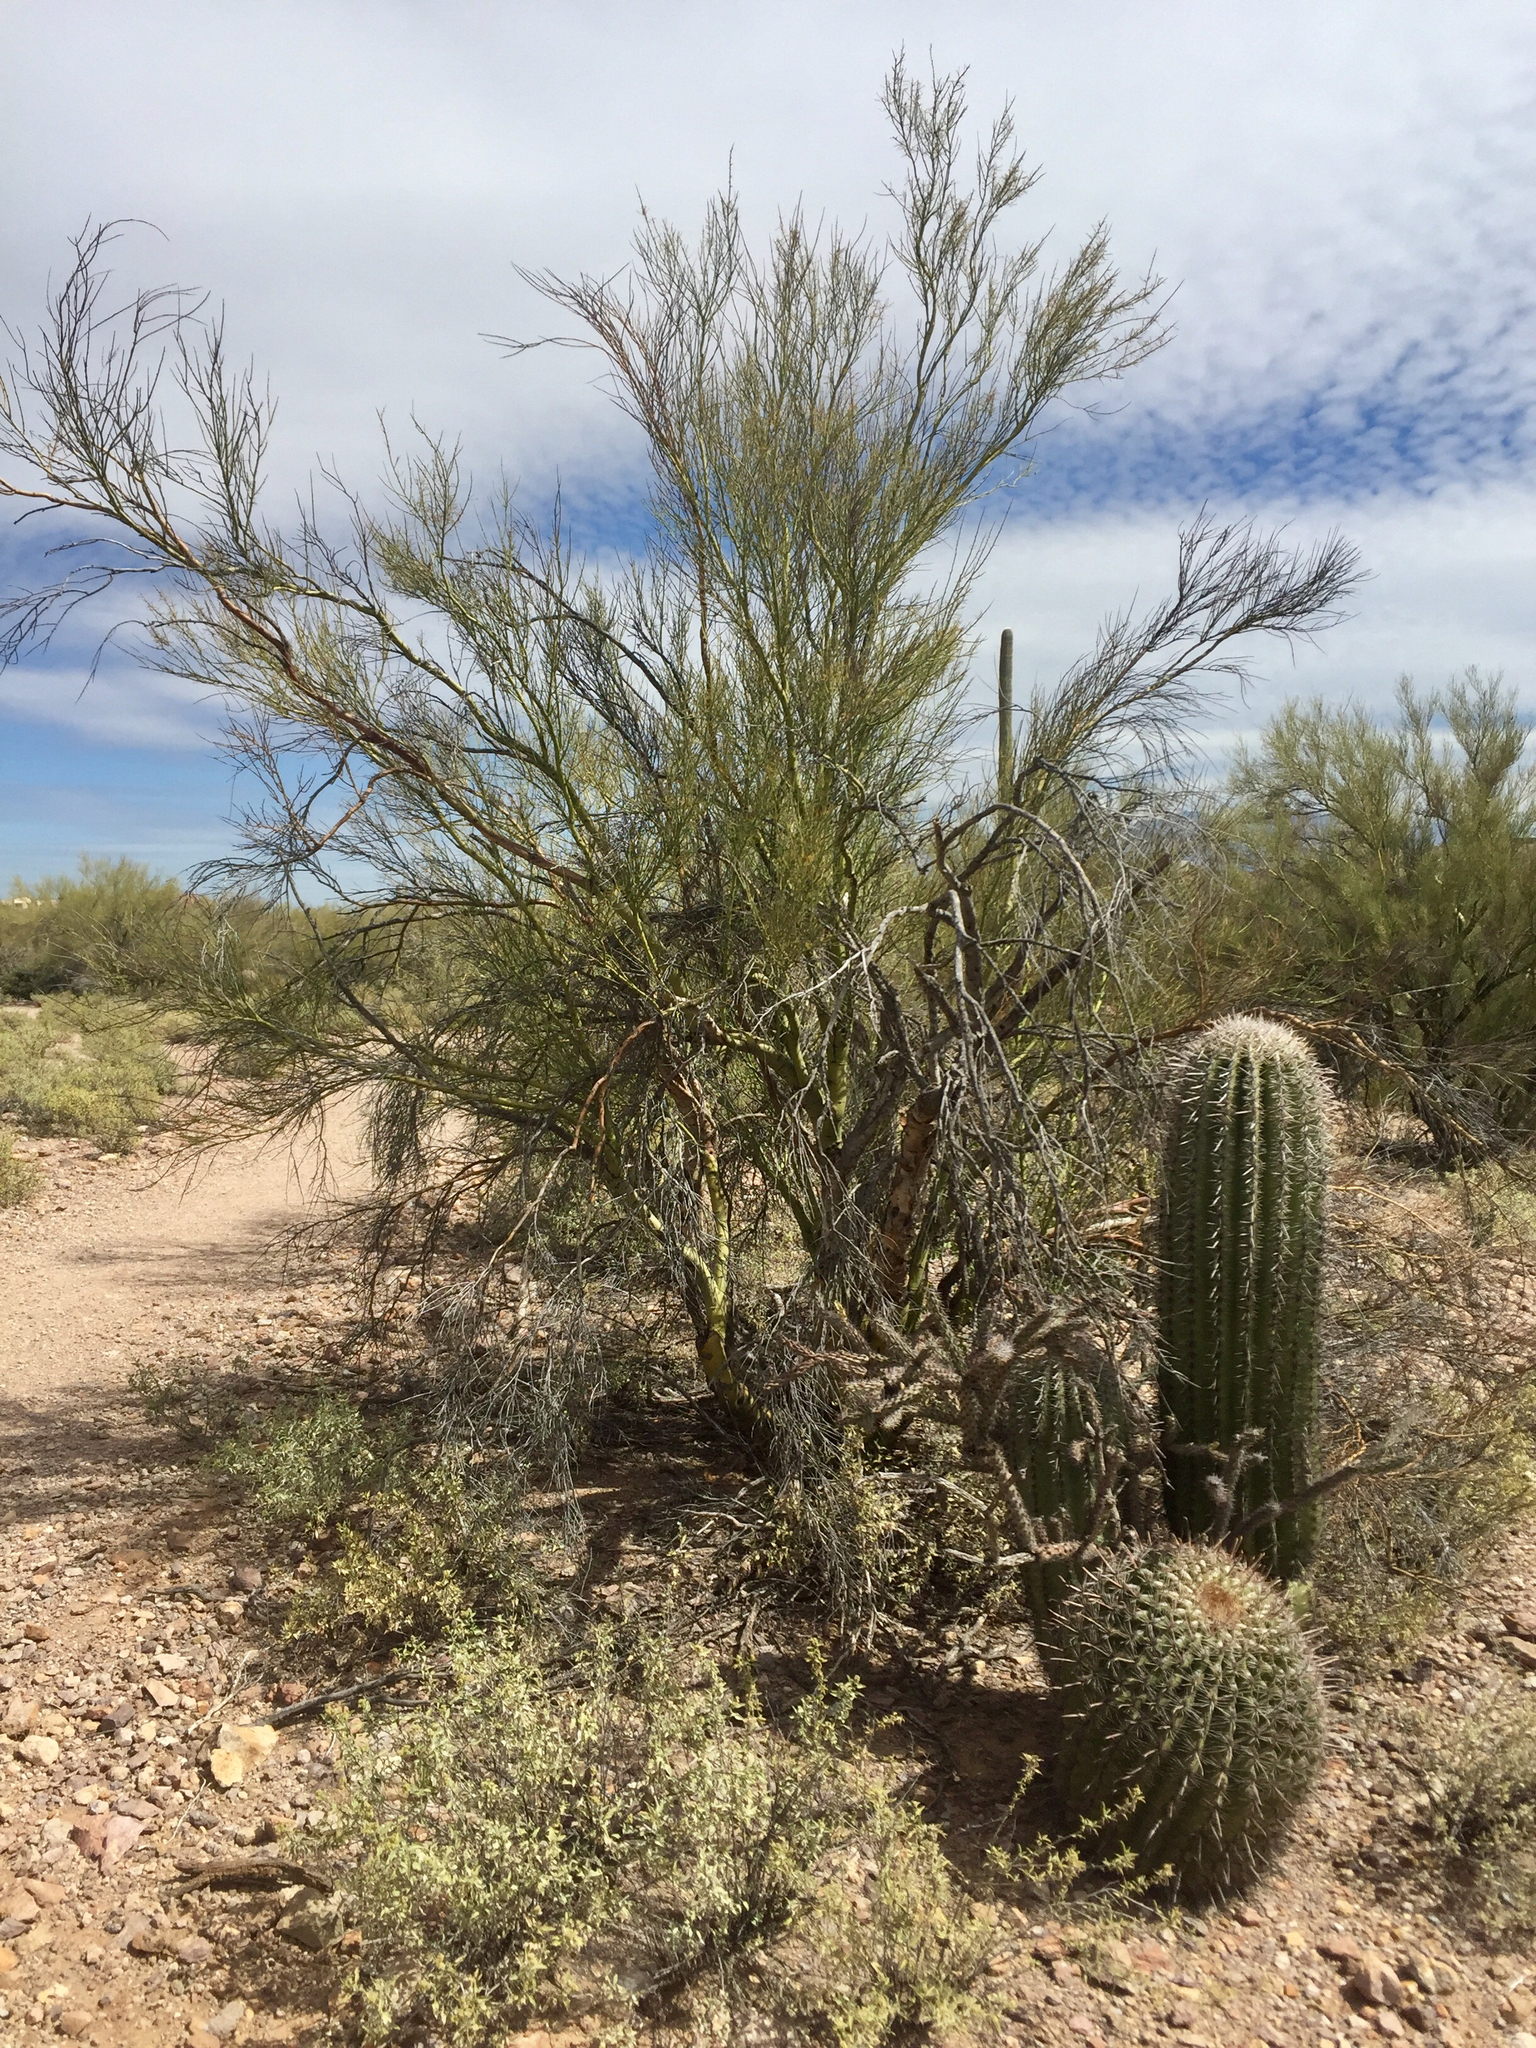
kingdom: Plantae
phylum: Tracheophyta
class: Magnoliopsida
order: Fabales
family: Fabaceae
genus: Parkinsonia
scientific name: Parkinsonia microphylla
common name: Yellow paloverde
